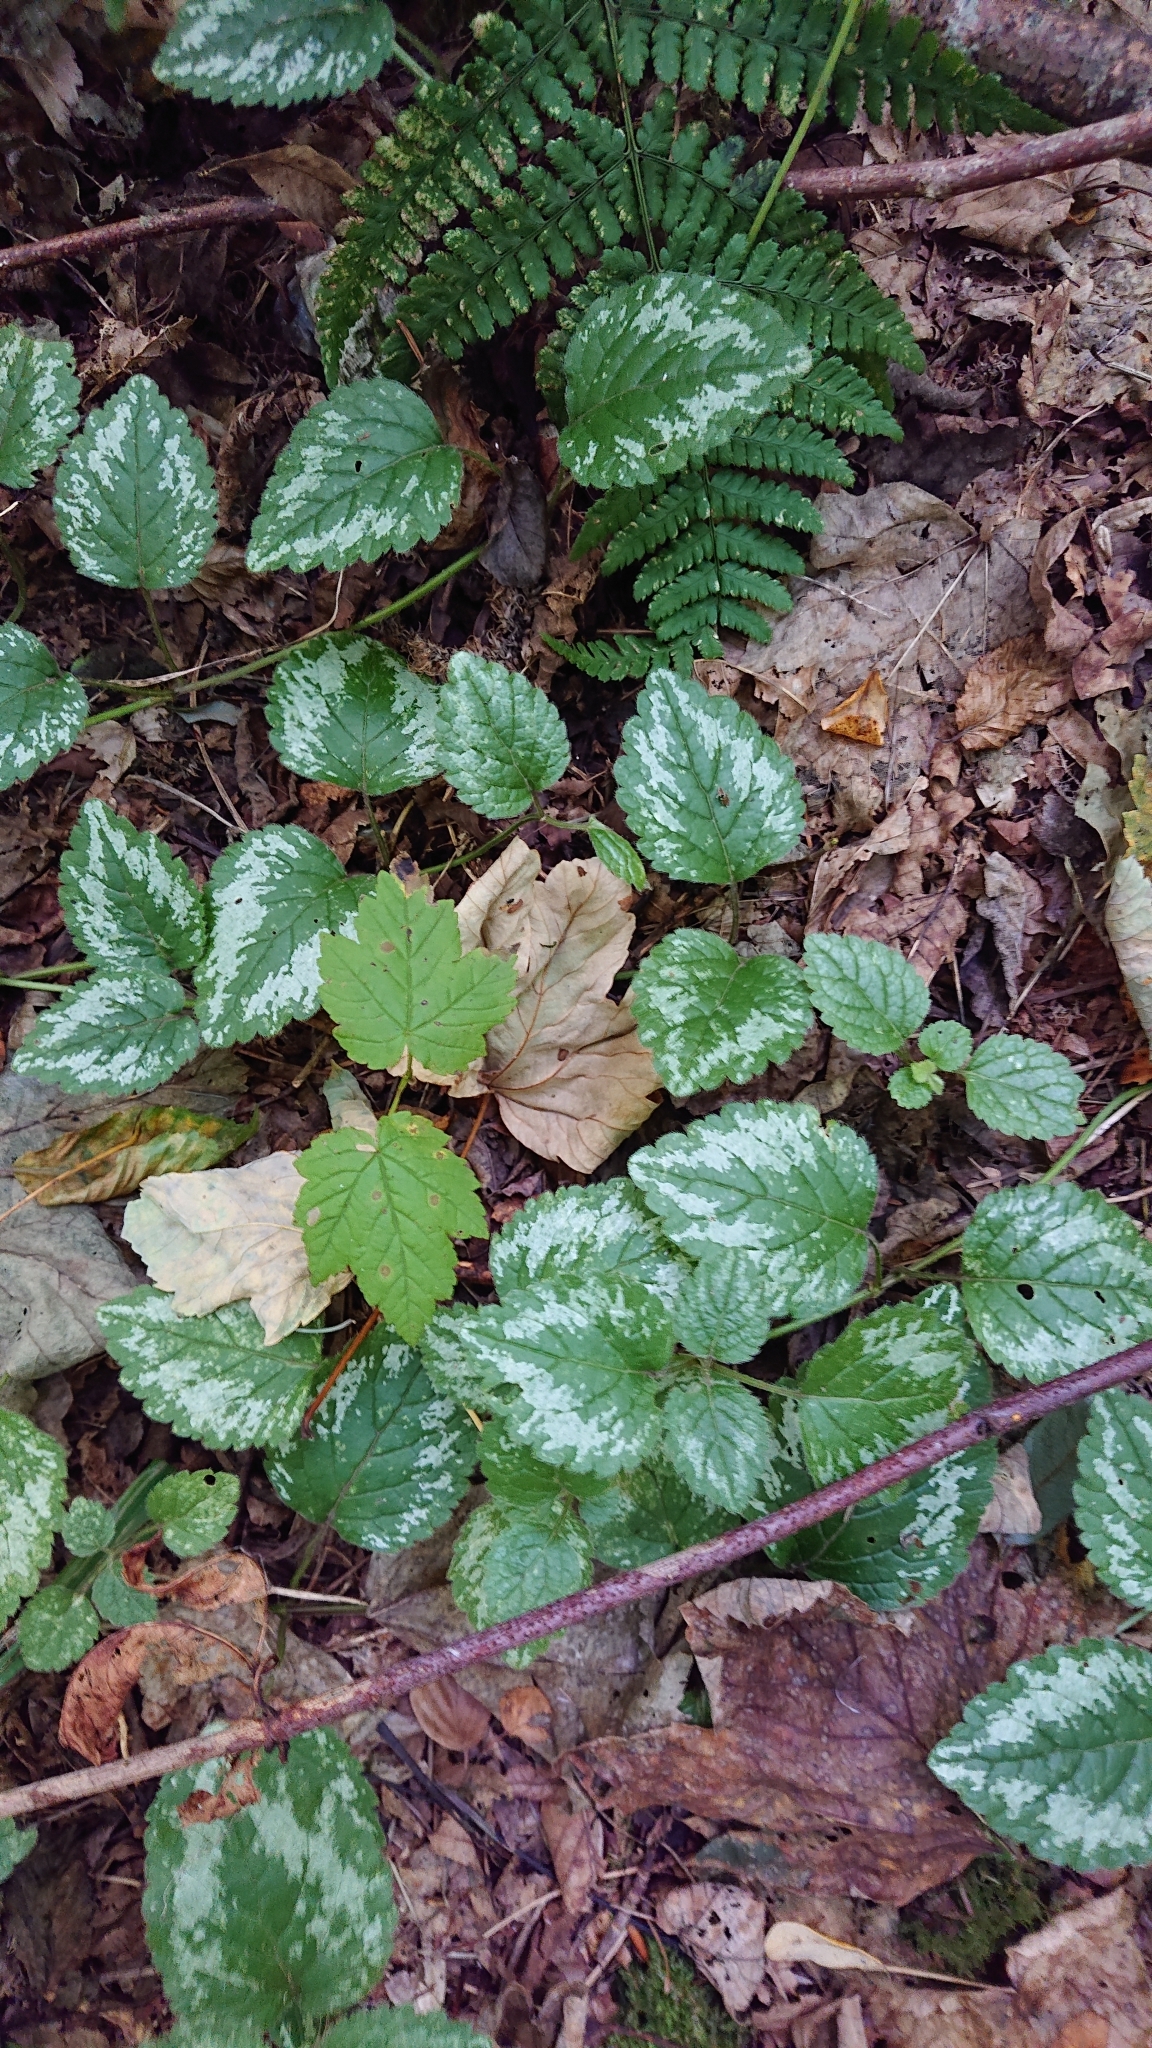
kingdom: Plantae
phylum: Tracheophyta
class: Magnoliopsida
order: Lamiales
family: Lamiaceae
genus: Lamium
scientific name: Lamium galeobdolon
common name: Yellow archangel
